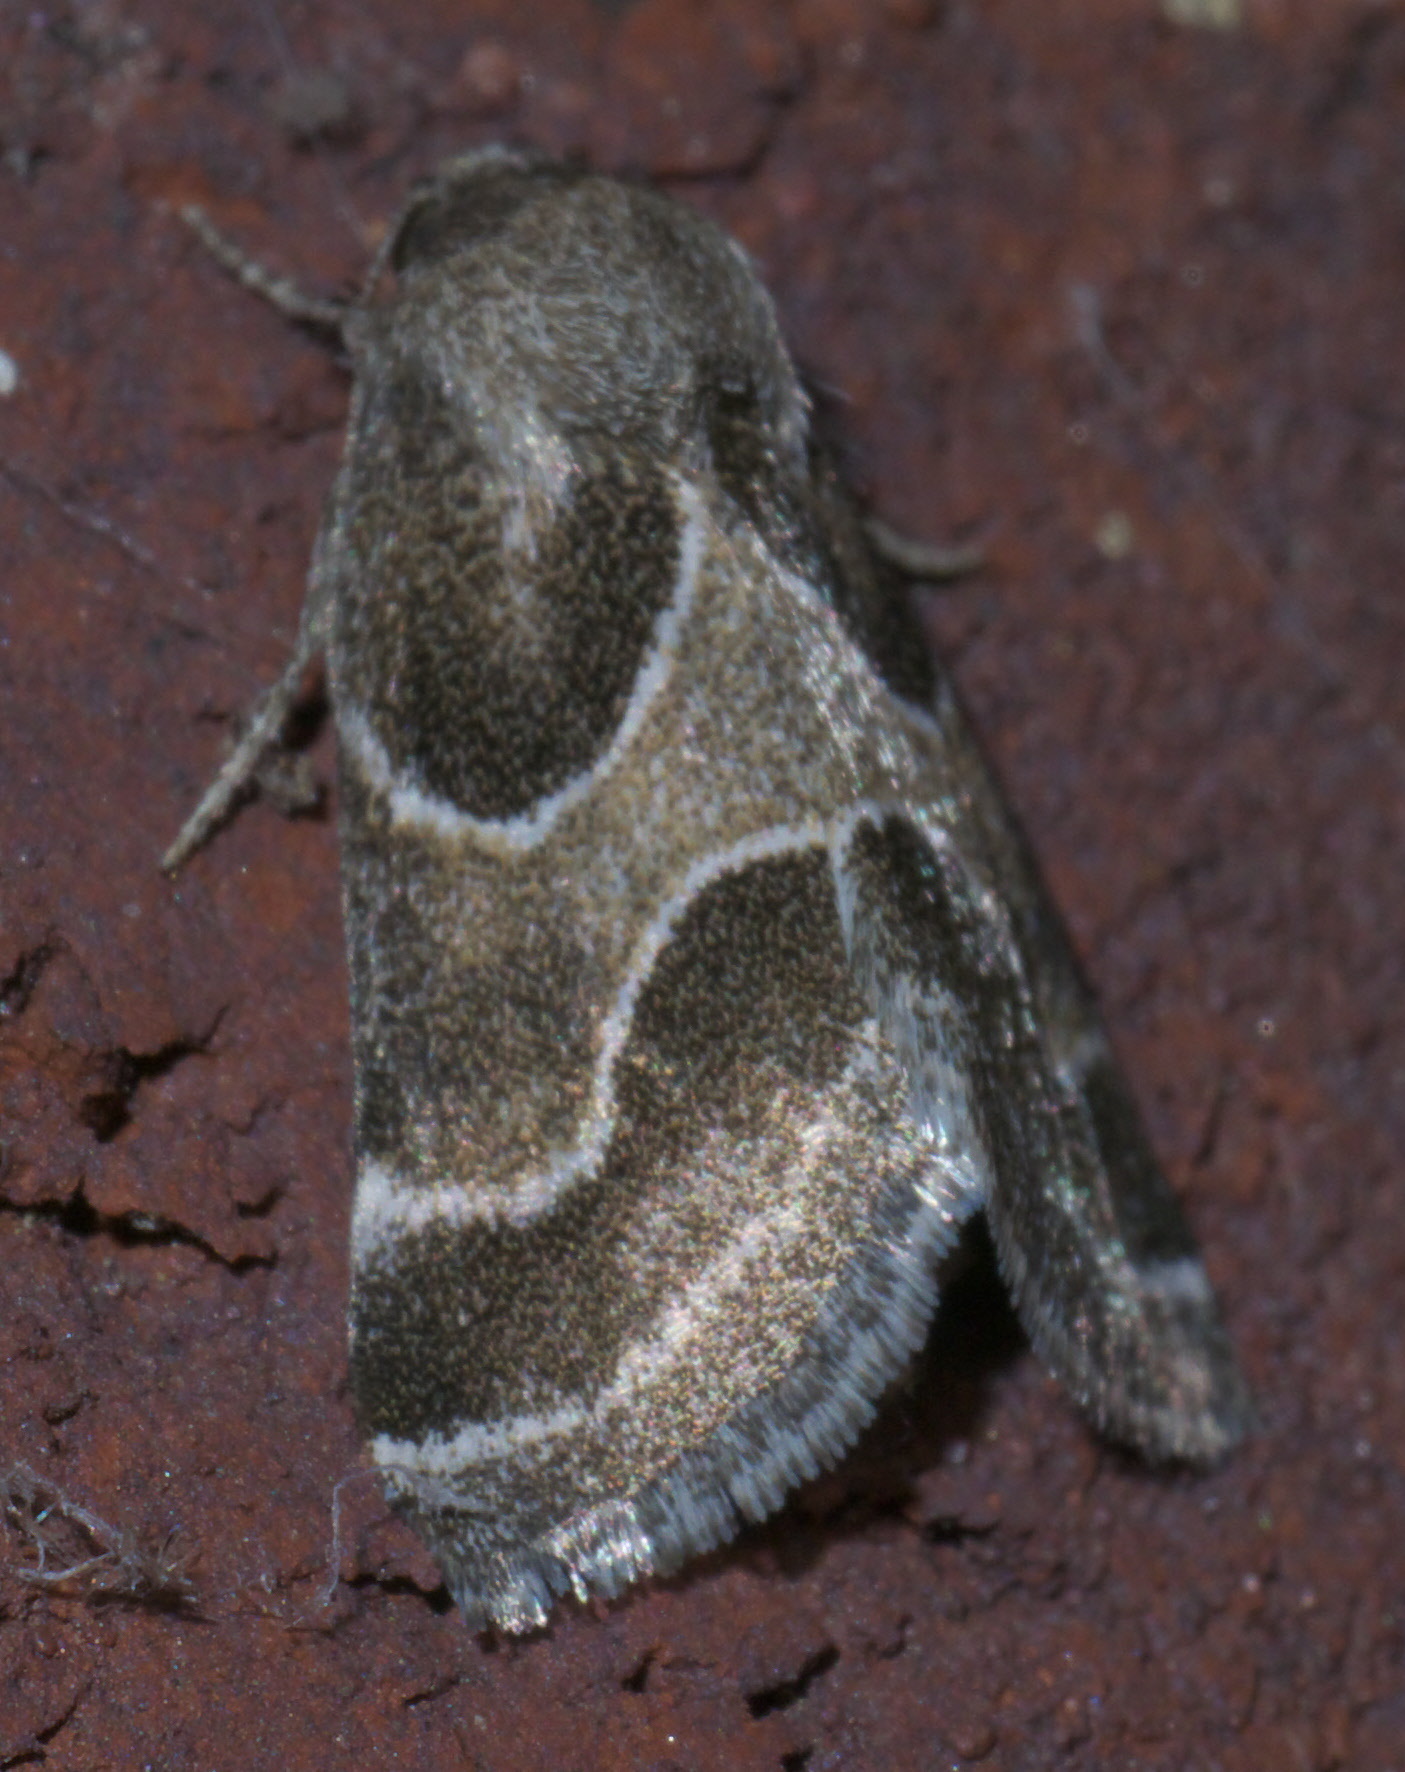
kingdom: Animalia
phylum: Arthropoda
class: Insecta
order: Lepidoptera
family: Noctuidae
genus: Schinia
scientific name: Schinia rivulosa
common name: Scarce meal-moth
